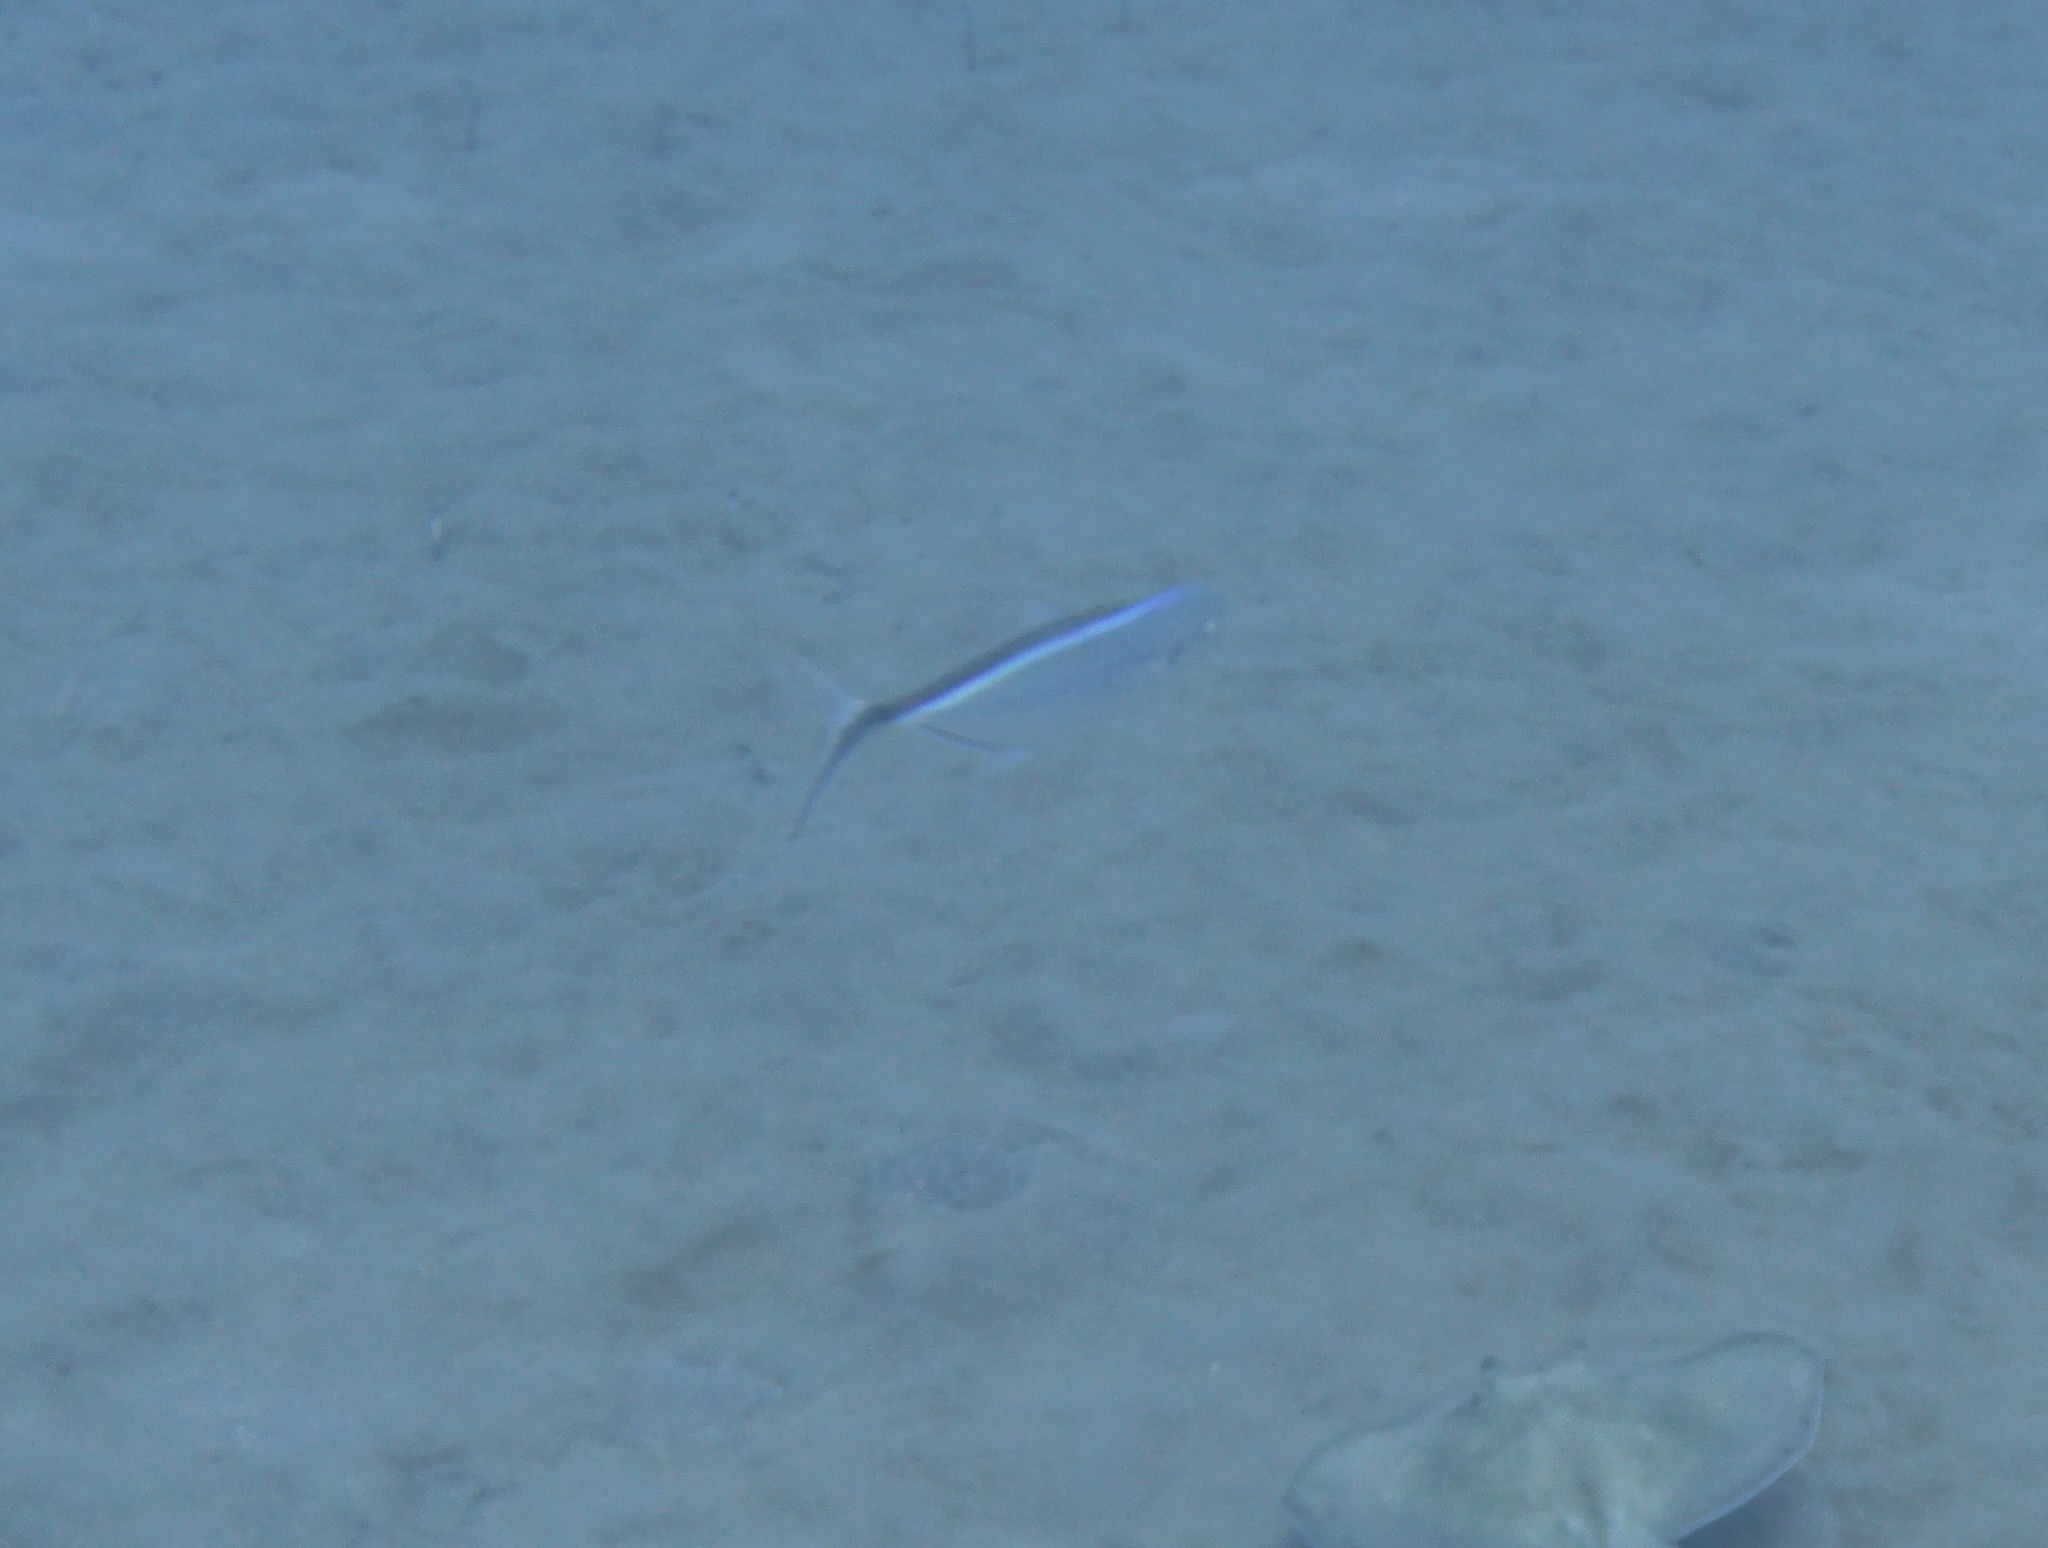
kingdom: Animalia
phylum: Chordata
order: Perciformes
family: Carangidae
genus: Caranx
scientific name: Caranx ruber
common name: Bar jack
